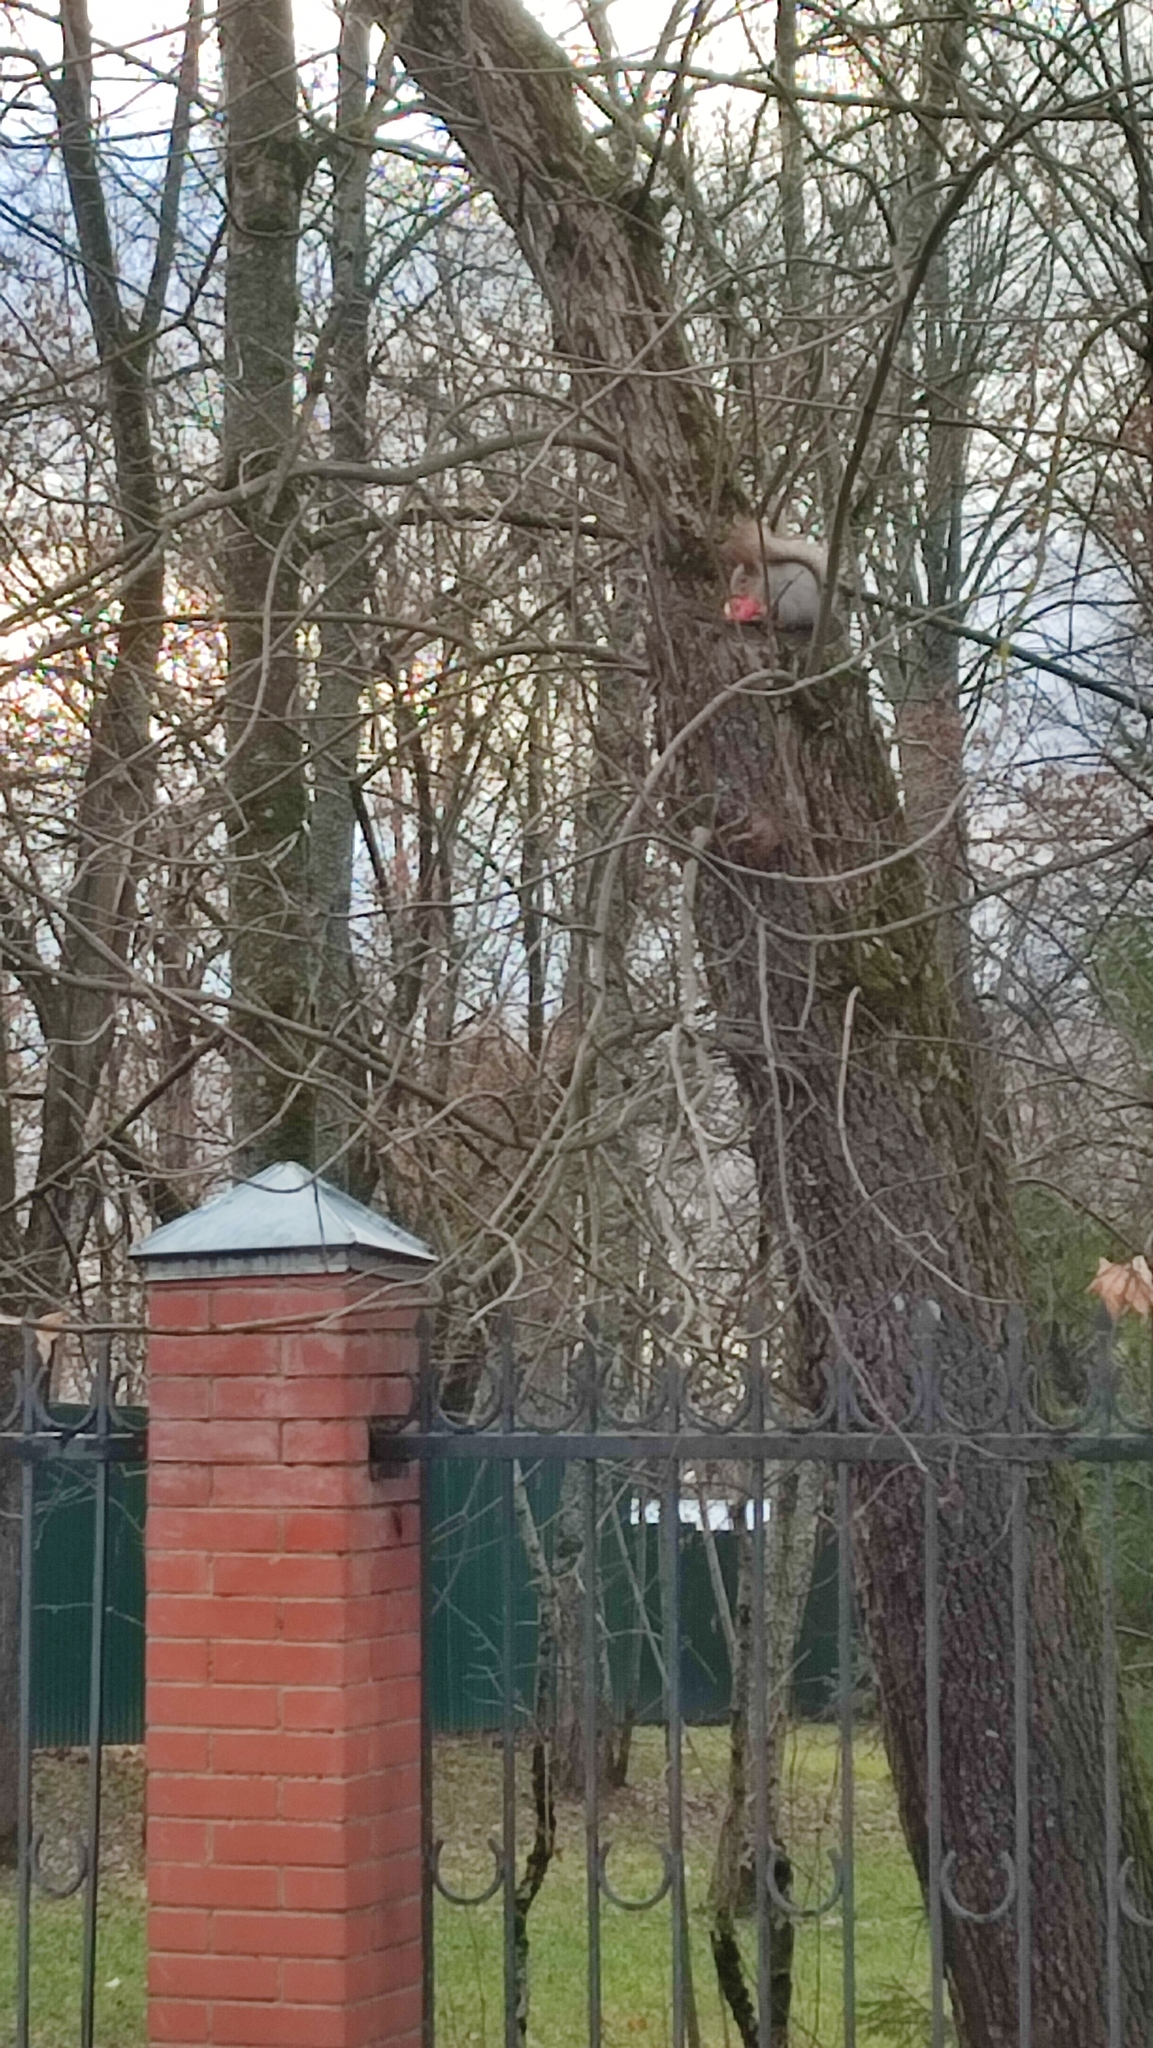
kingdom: Animalia
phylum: Chordata
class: Mammalia
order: Rodentia
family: Sciuridae
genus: Sciurus
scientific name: Sciurus vulgaris
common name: Eurasian red squirrel
